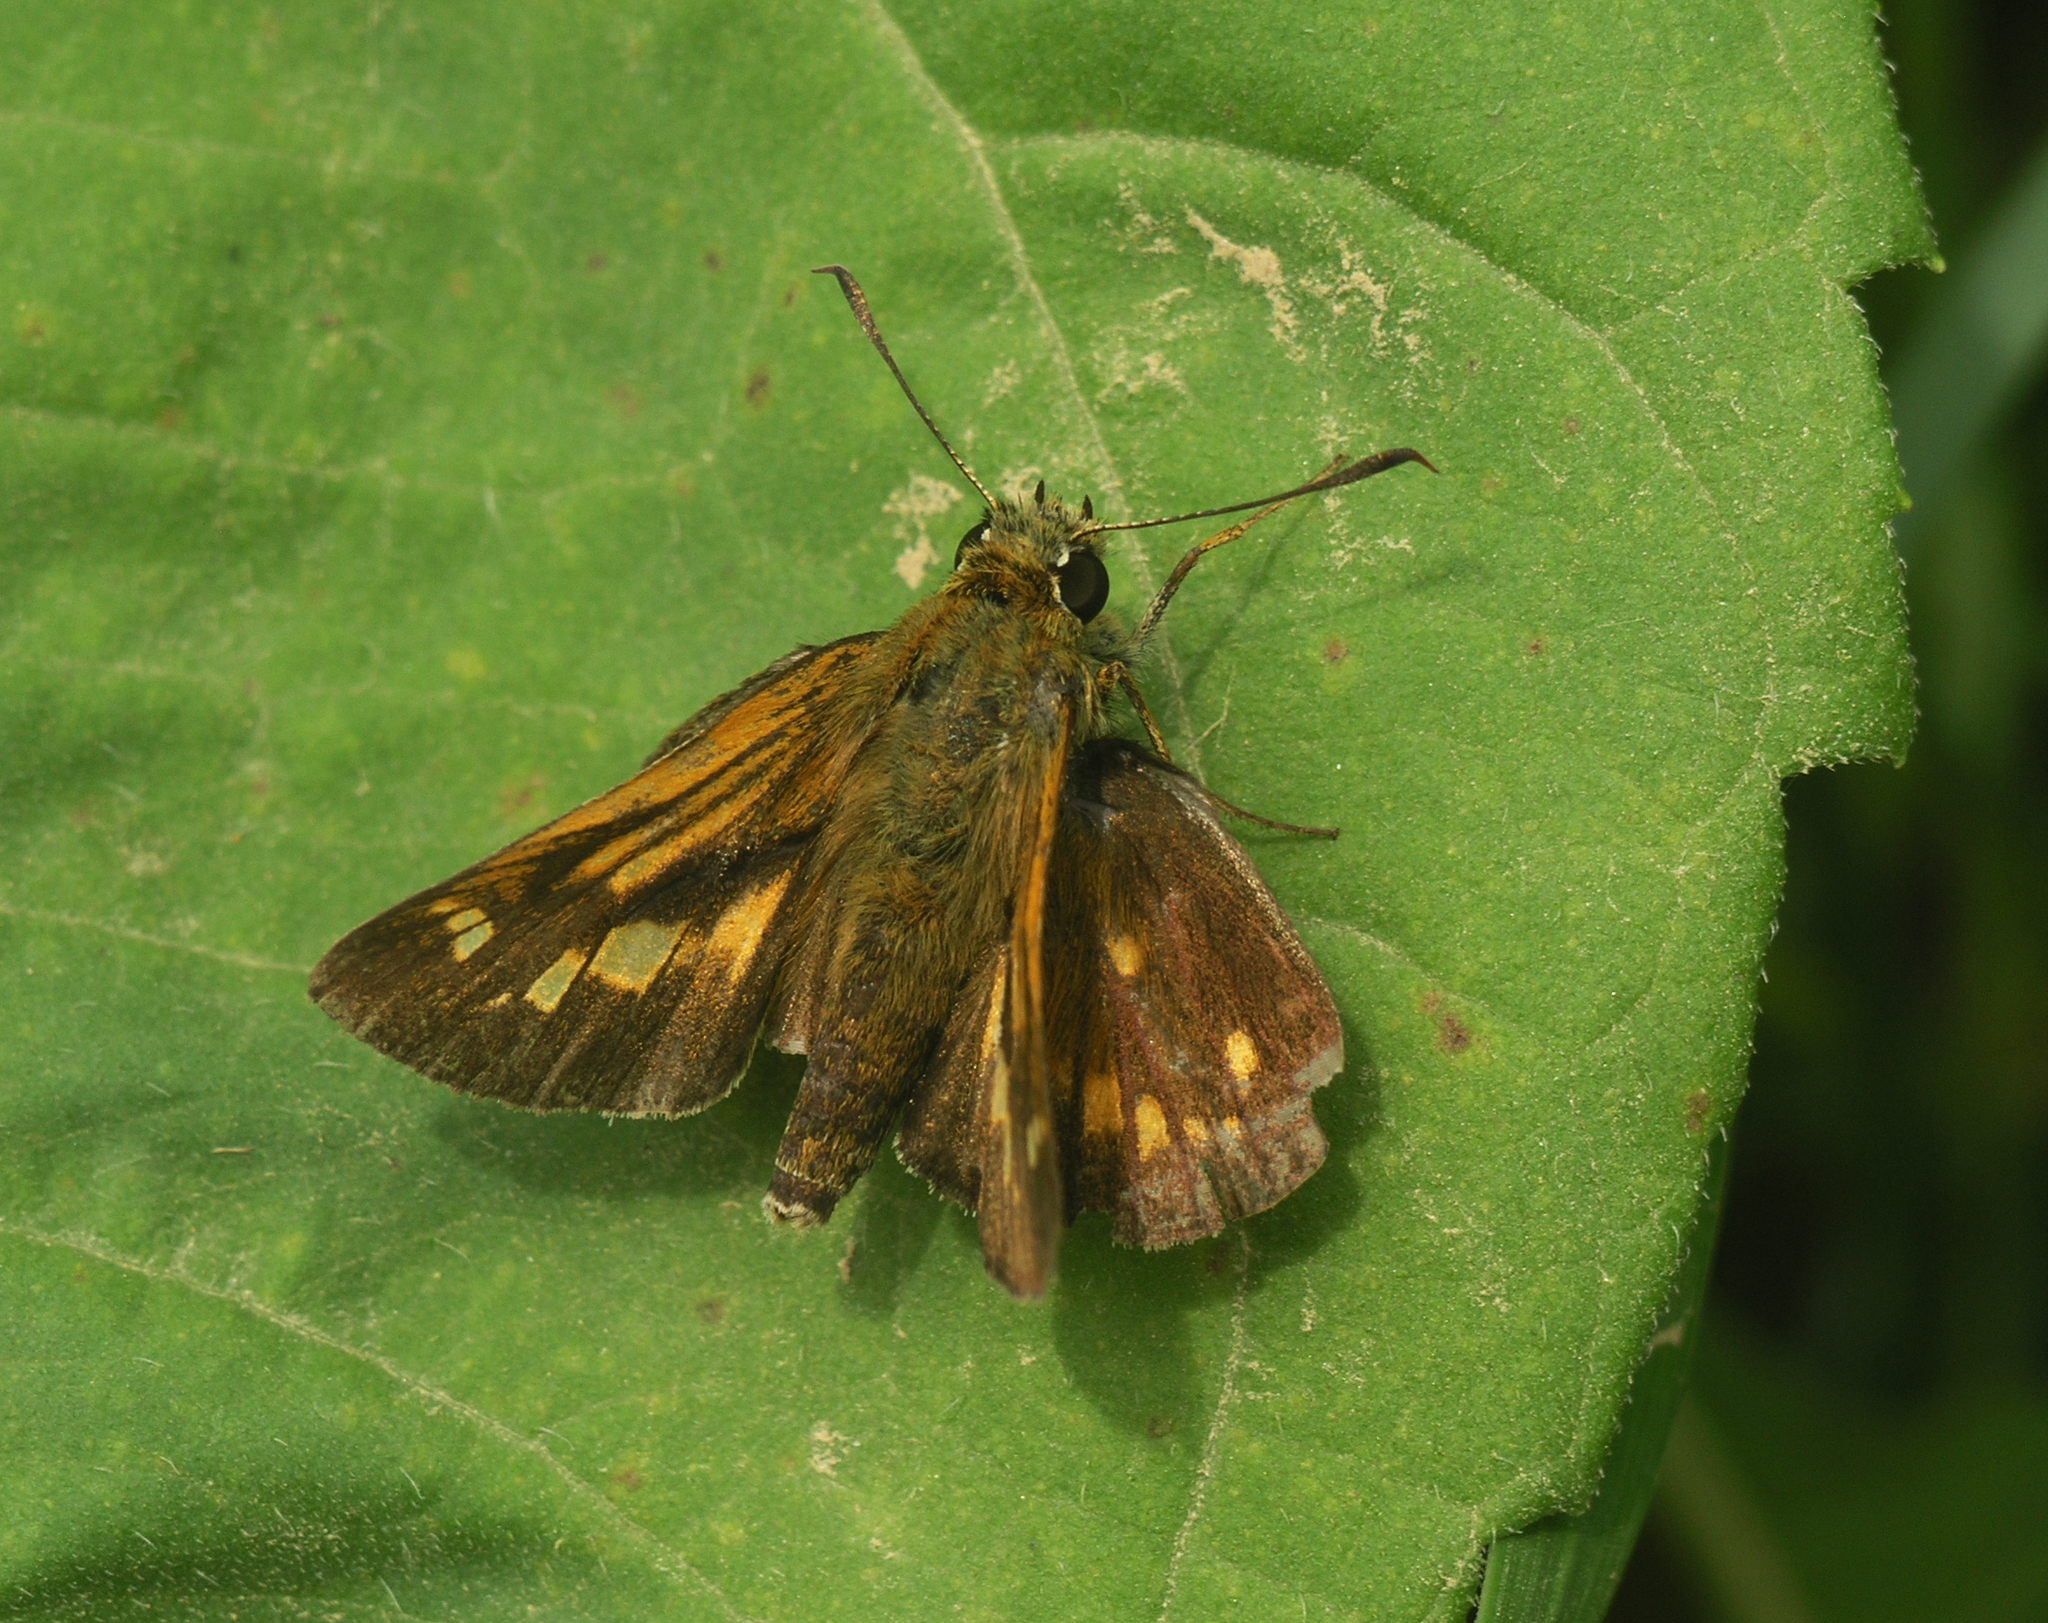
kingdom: Animalia
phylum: Arthropoda
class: Insecta
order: Lepidoptera
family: Hesperiidae
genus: Ochlodes
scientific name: Ochlodes subhyalina
